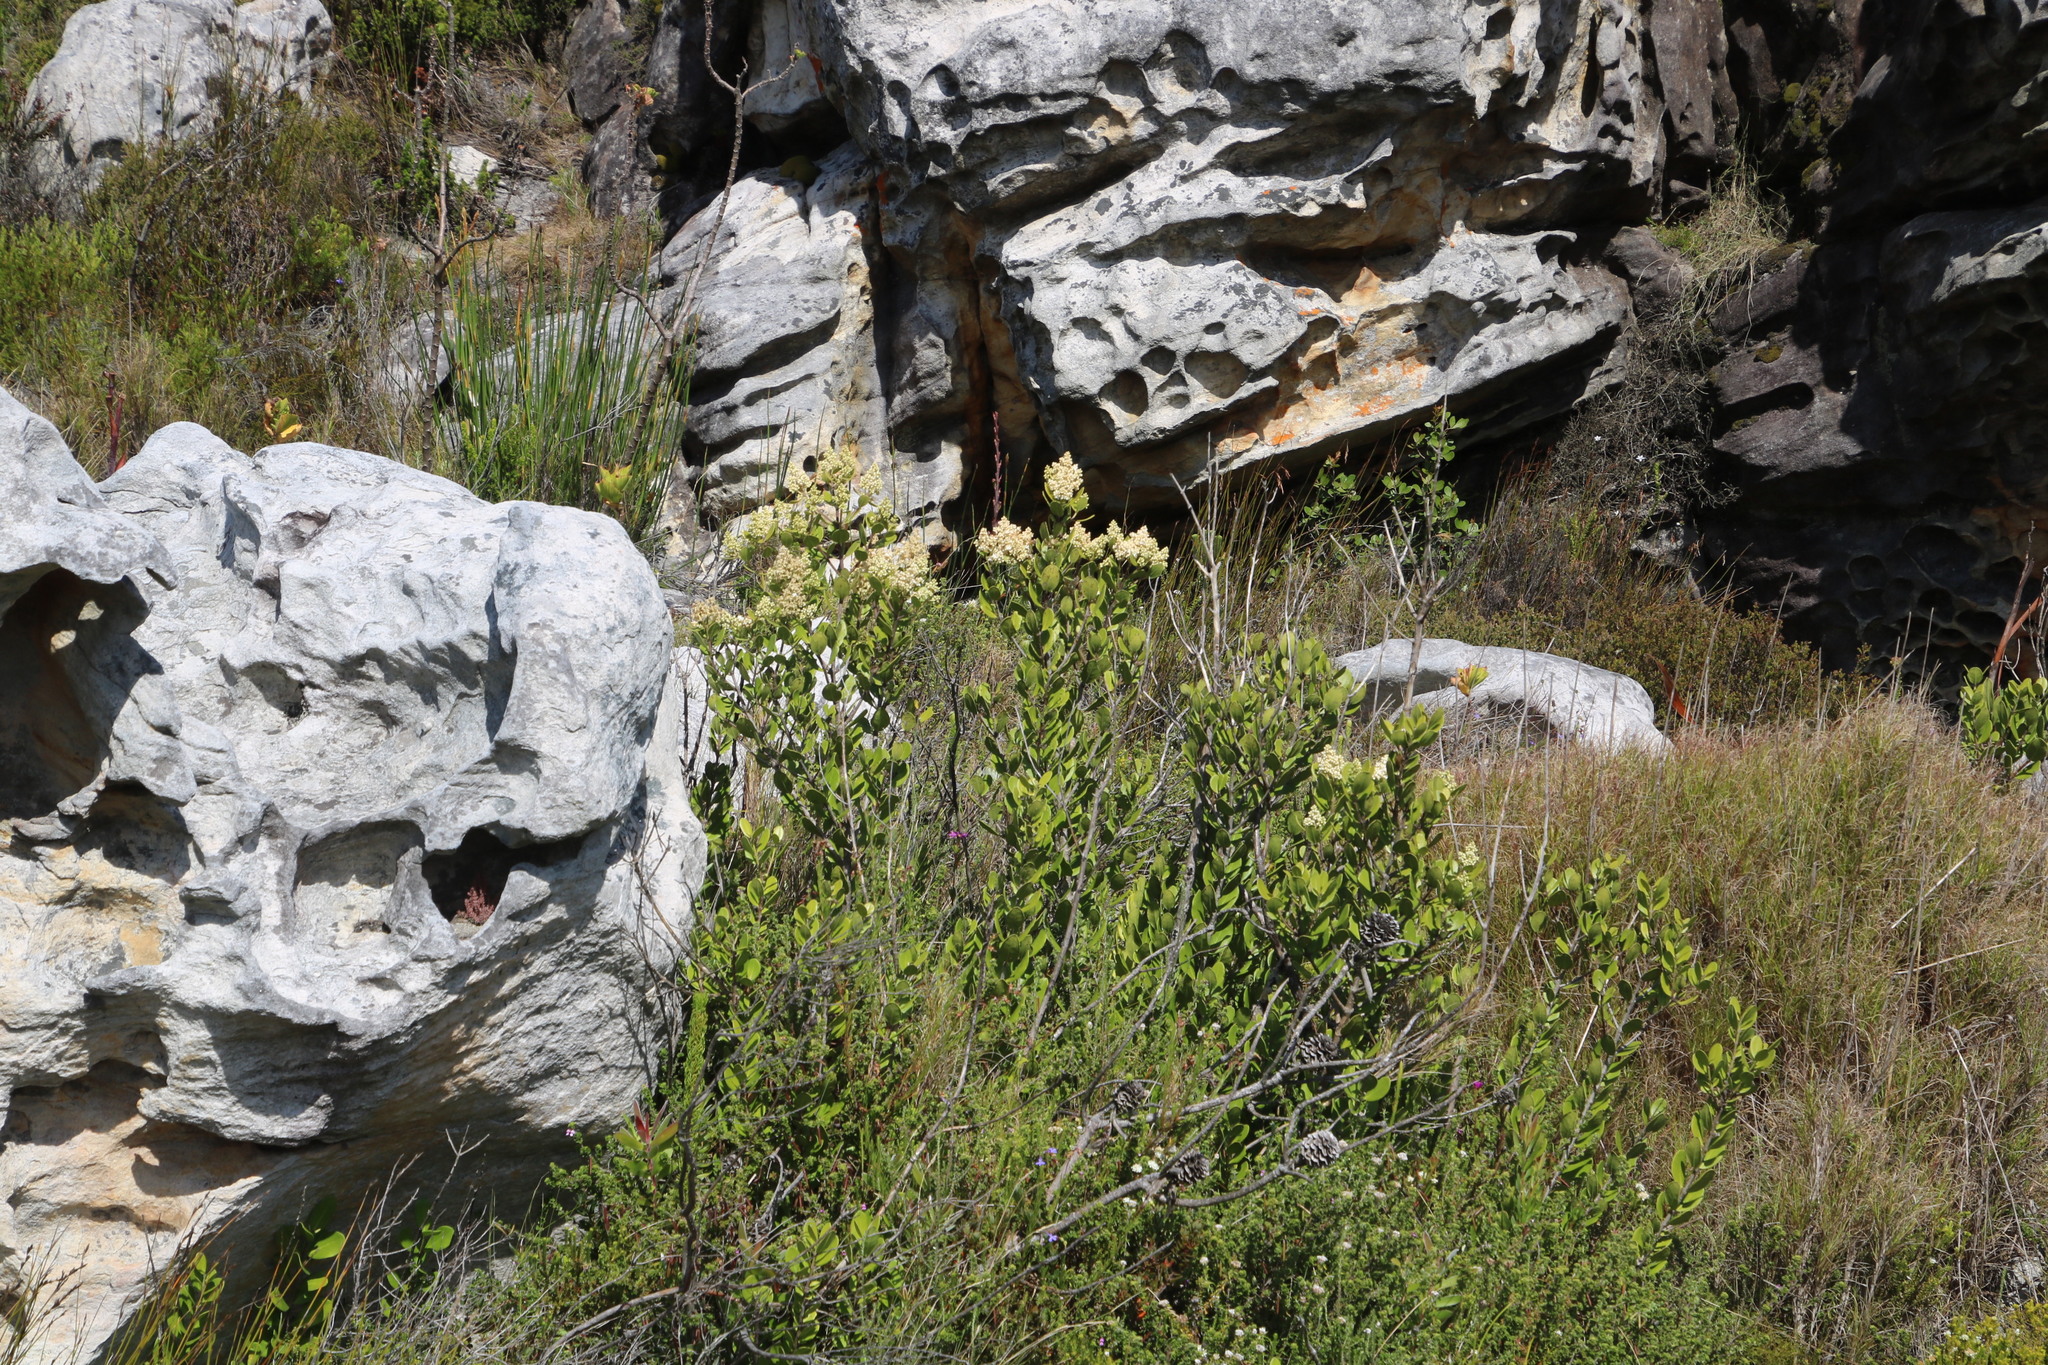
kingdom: Plantae
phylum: Tracheophyta
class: Magnoliopsida
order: Lamiales
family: Oleaceae
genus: Olea
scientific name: Olea capensis
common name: Black ironwood
